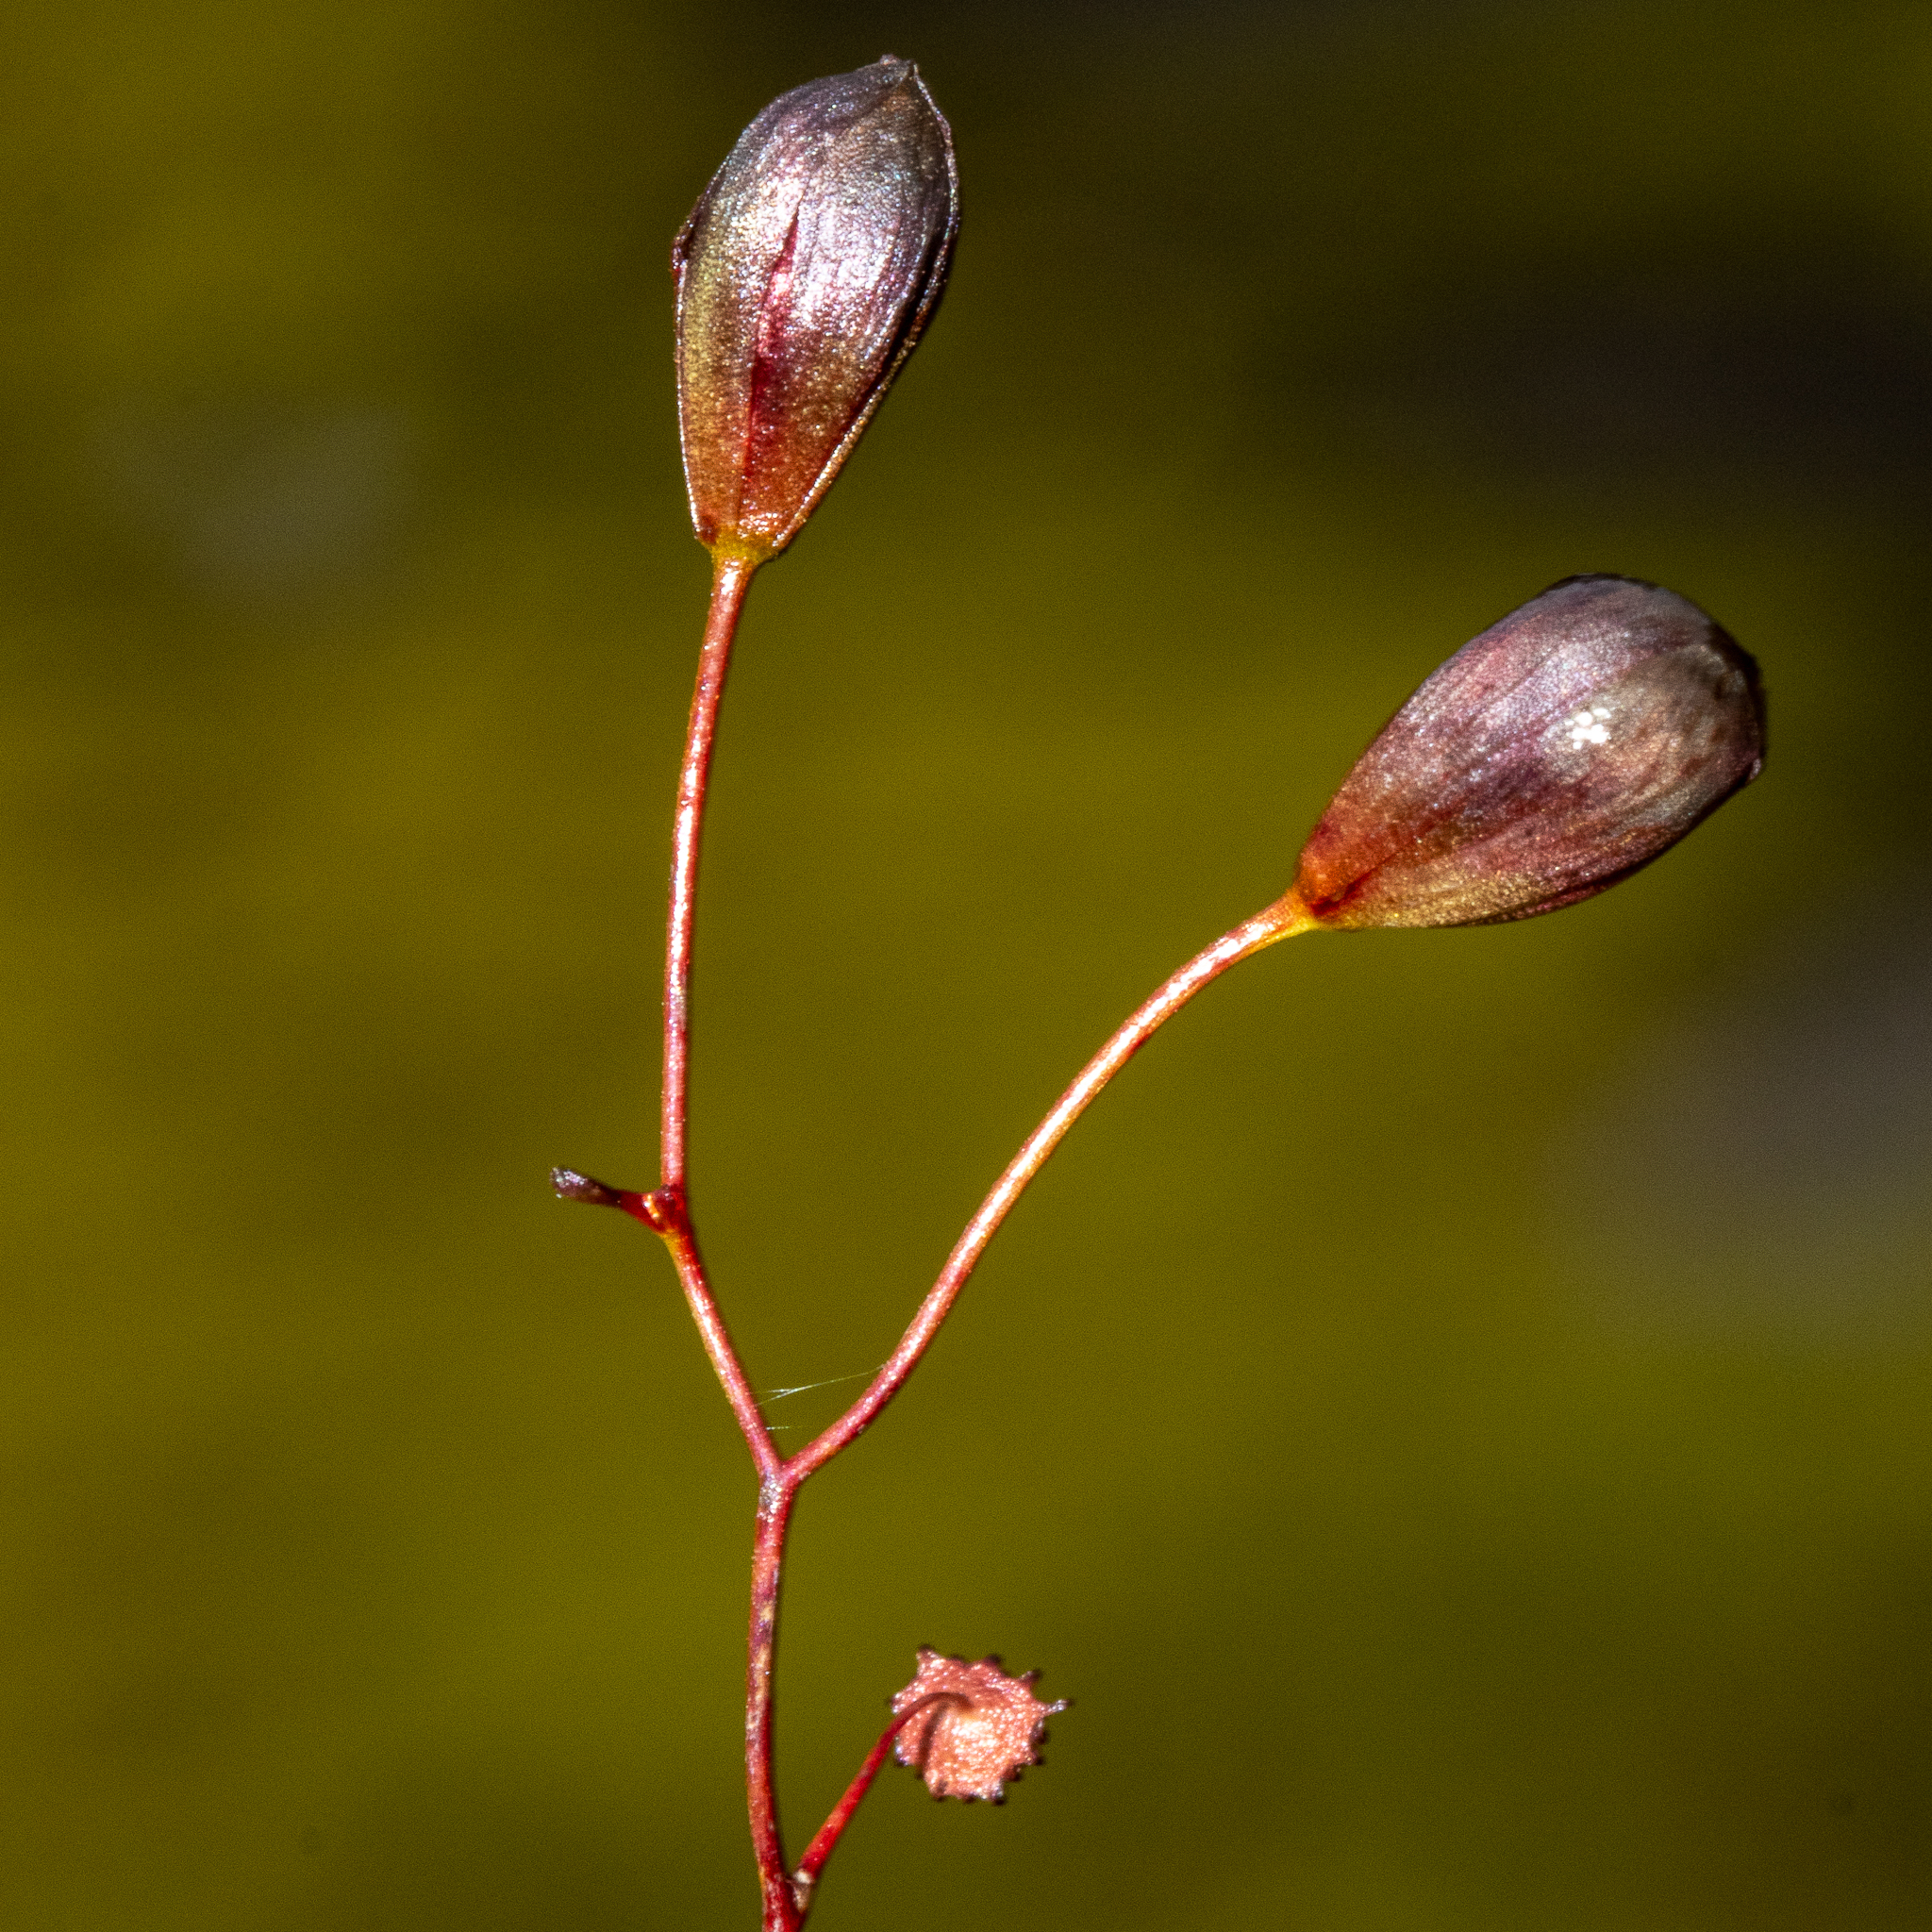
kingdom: Plantae
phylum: Tracheophyta
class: Magnoliopsida
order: Caryophyllales
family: Droseraceae
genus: Drosera
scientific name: Drosera
